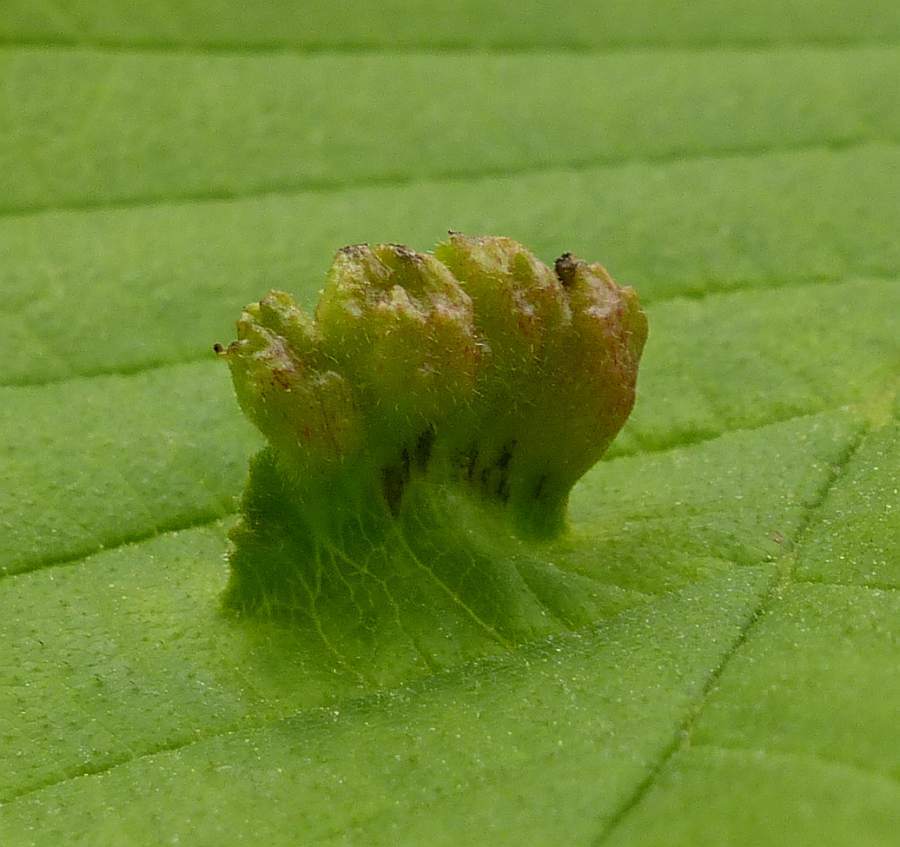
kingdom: Animalia
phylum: Arthropoda
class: Insecta
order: Hemiptera
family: Aphididae
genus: Colopha
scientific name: Colopha ulmicola
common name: Elm cockscombgall aphid
